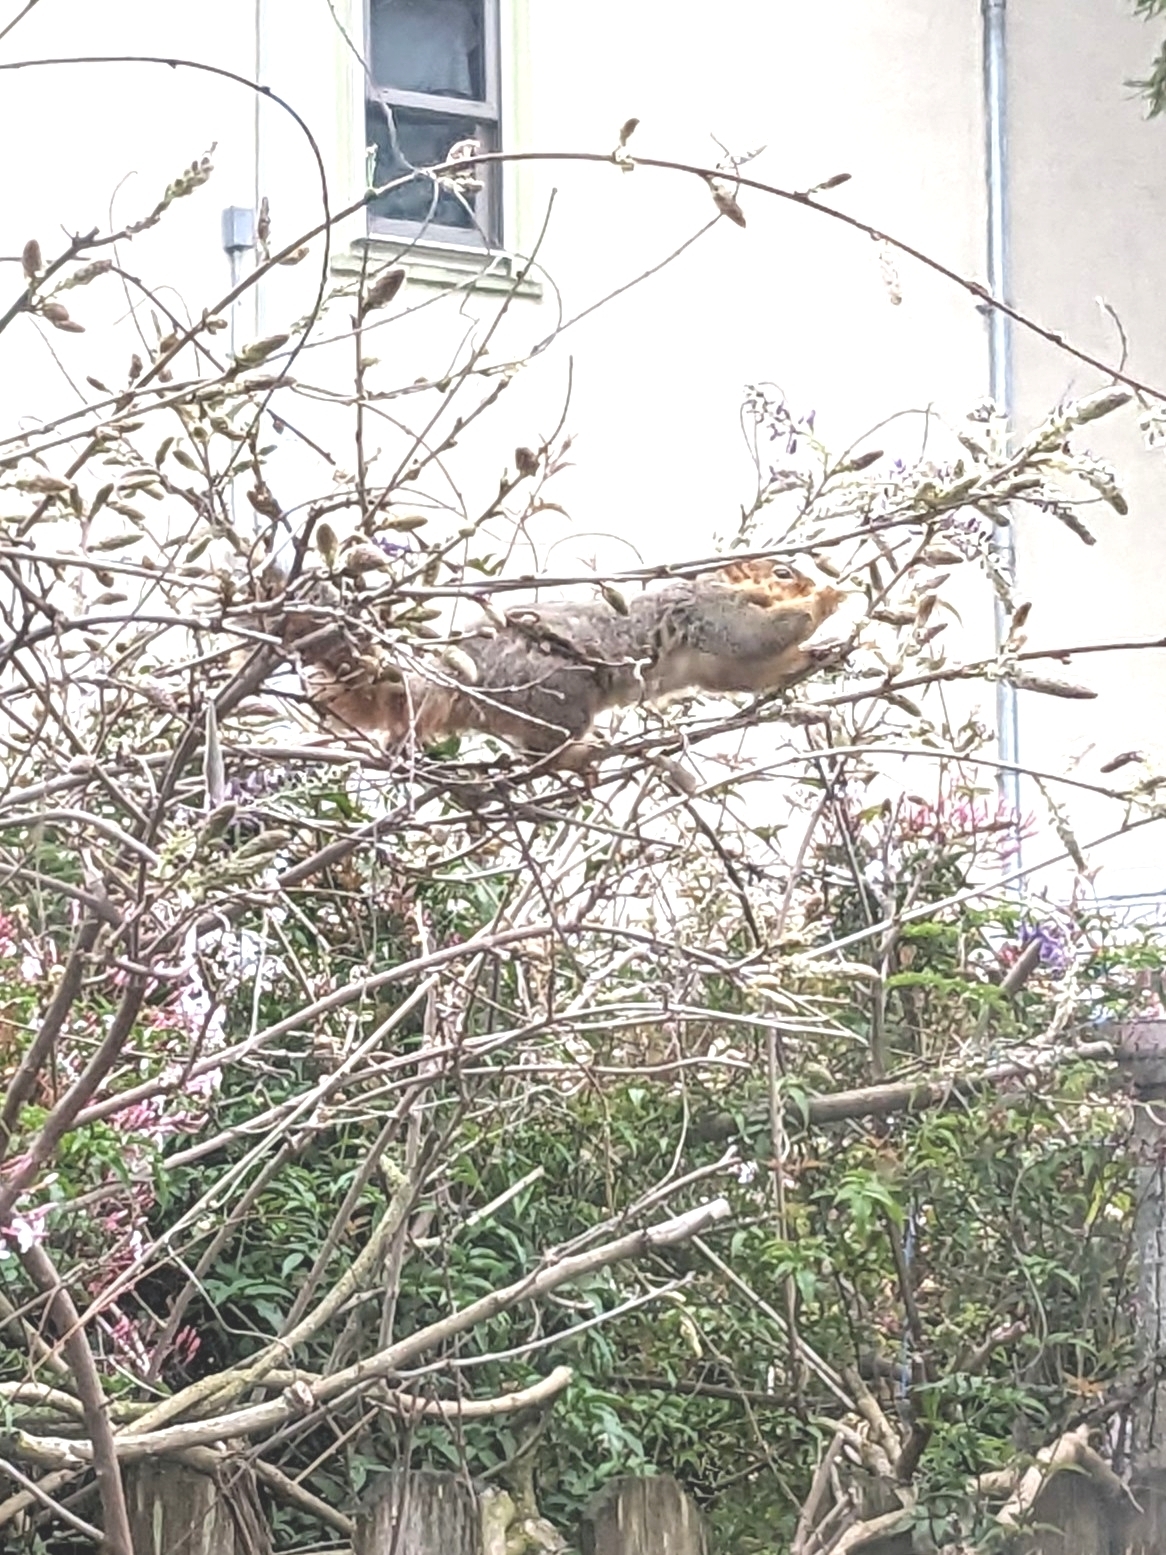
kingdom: Animalia
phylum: Chordata
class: Mammalia
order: Rodentia
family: Sciuridae
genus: Sciurus
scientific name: Sciurus niger
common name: Fox squirrel
